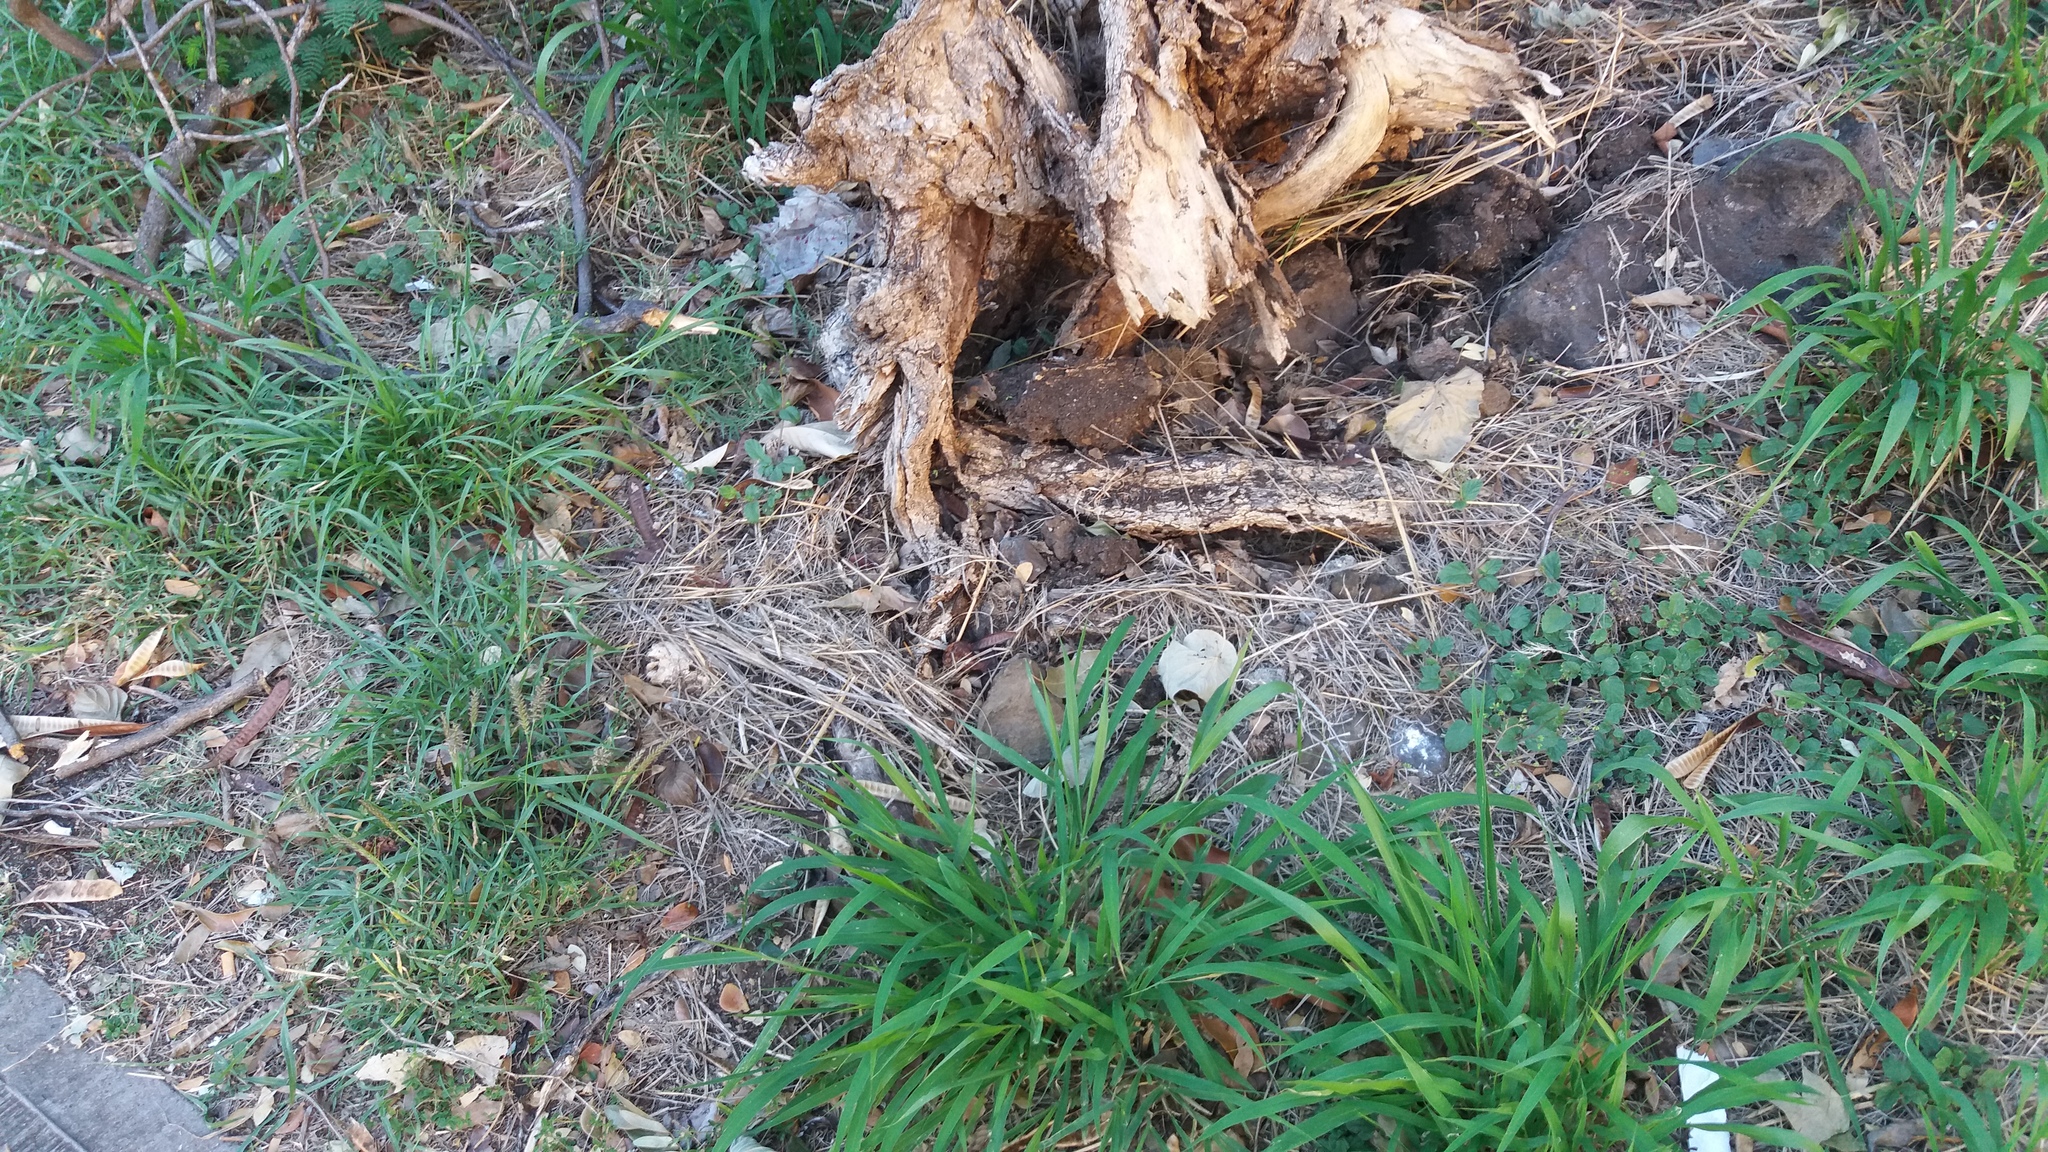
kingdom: Animalia
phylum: Chordata
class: Mammalia
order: Rodentia
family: Muridae
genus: Mus
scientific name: Mus musculus
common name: House mouse
